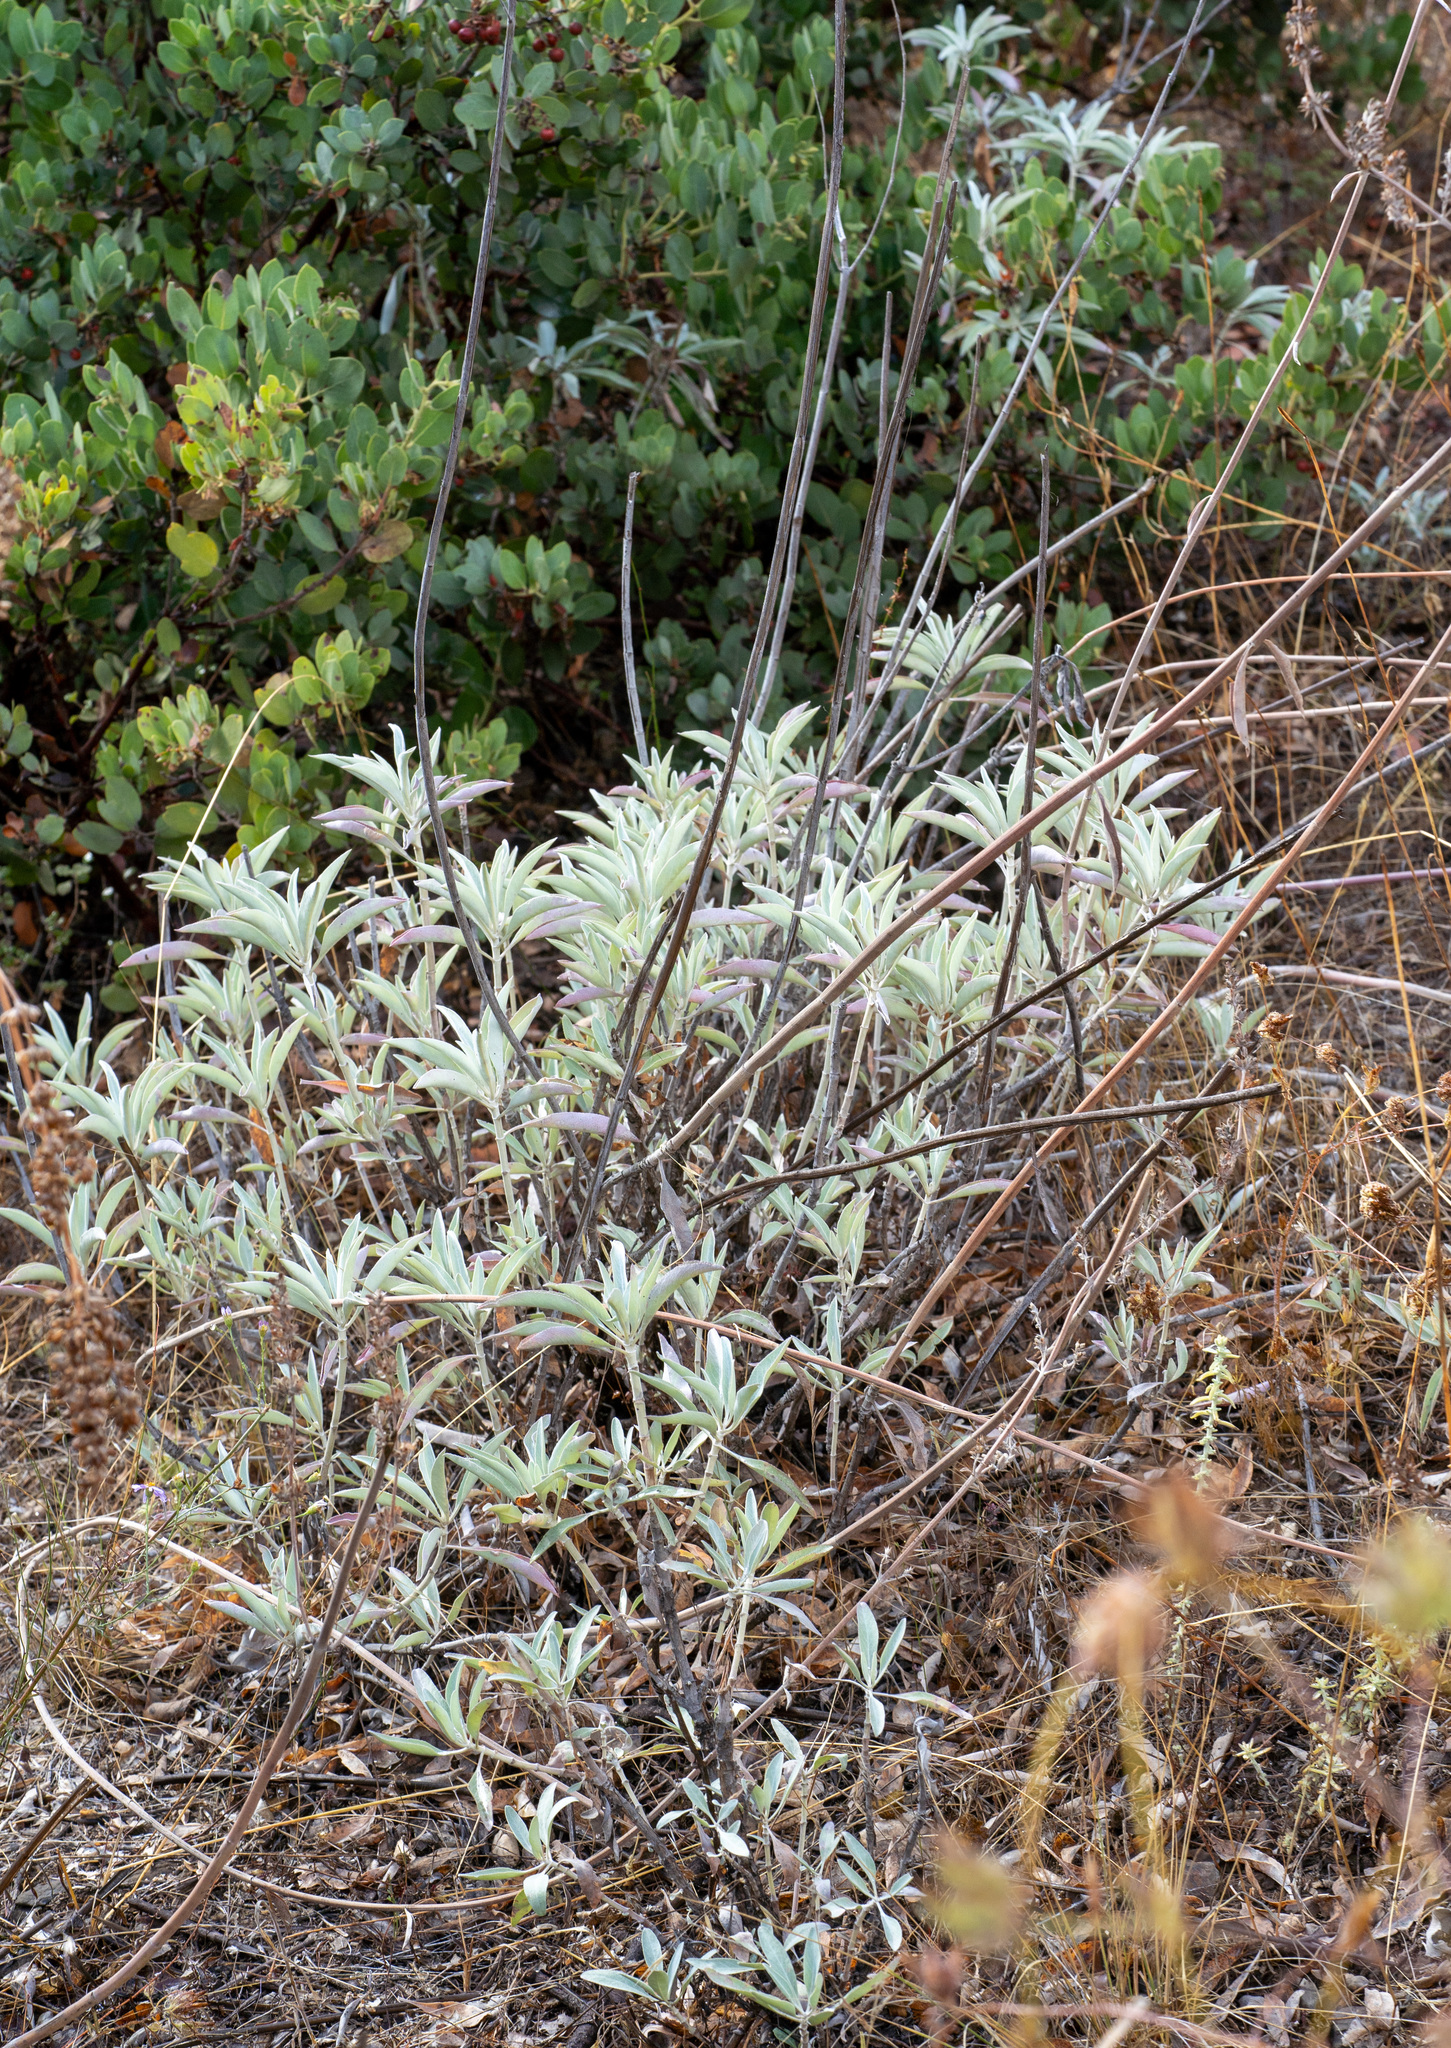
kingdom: Plantae
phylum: Tracheophyta
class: Magnoliopsida
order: Lamiales
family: Lamiaceae
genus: Salvia
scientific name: Salvia apiana
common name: White sage
